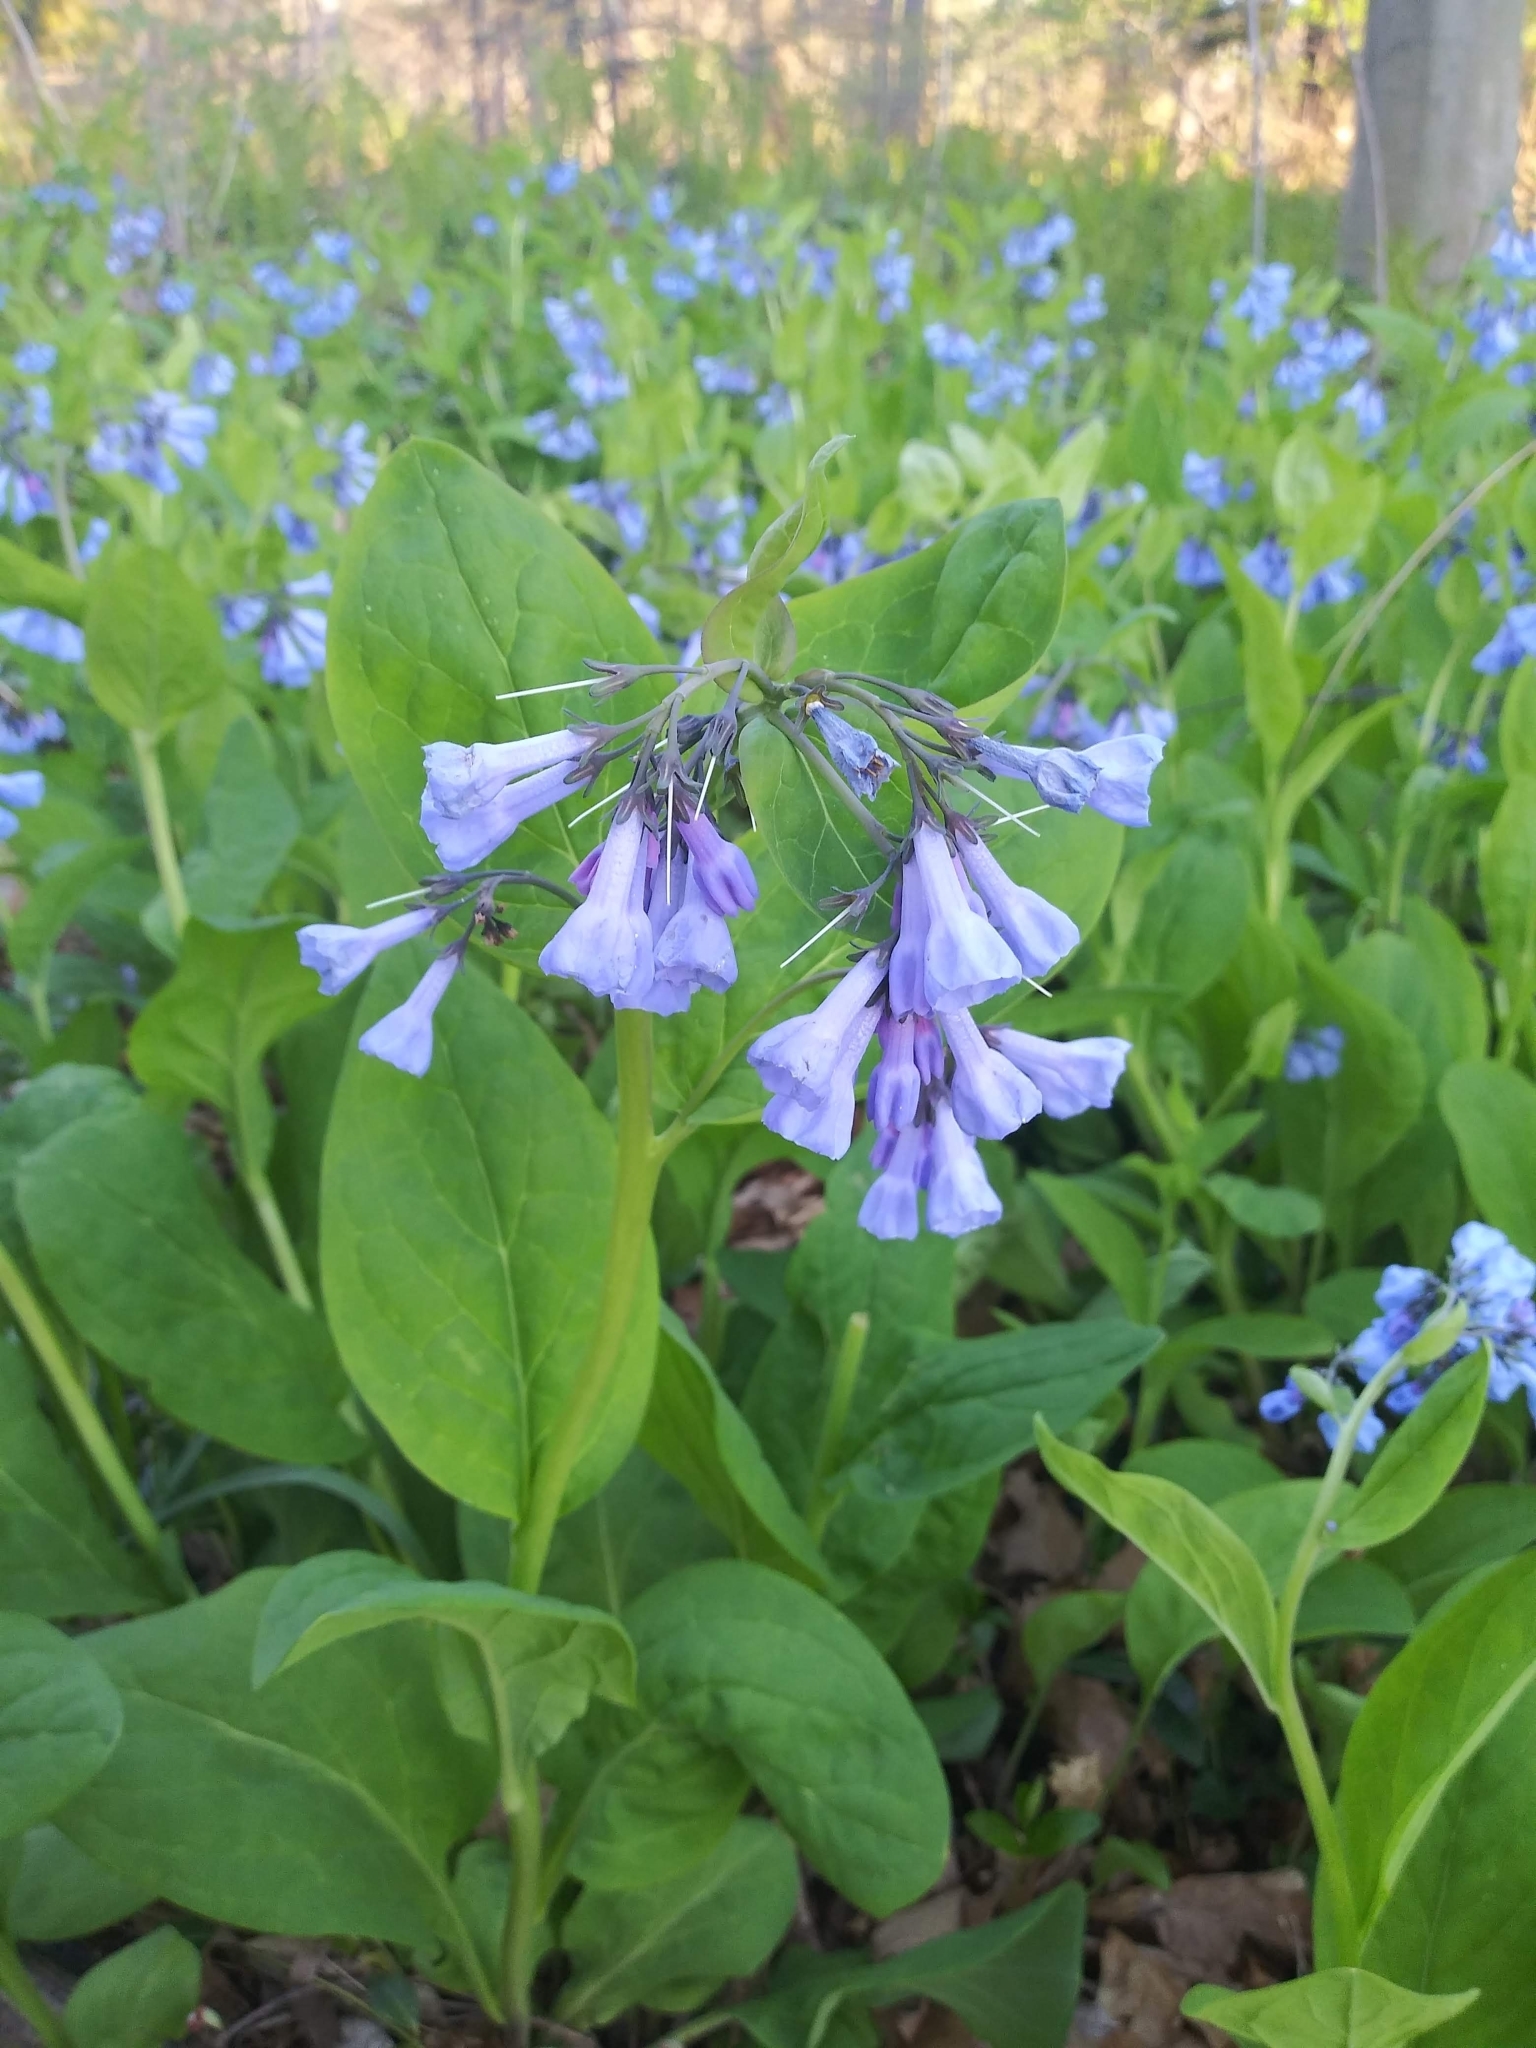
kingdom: Plantae
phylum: Tracheophyta
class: Magnoliopsida
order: Boraginales
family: Boraginaceae
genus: Mertensia
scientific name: Mertensia virginica
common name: Virginia bluebells
